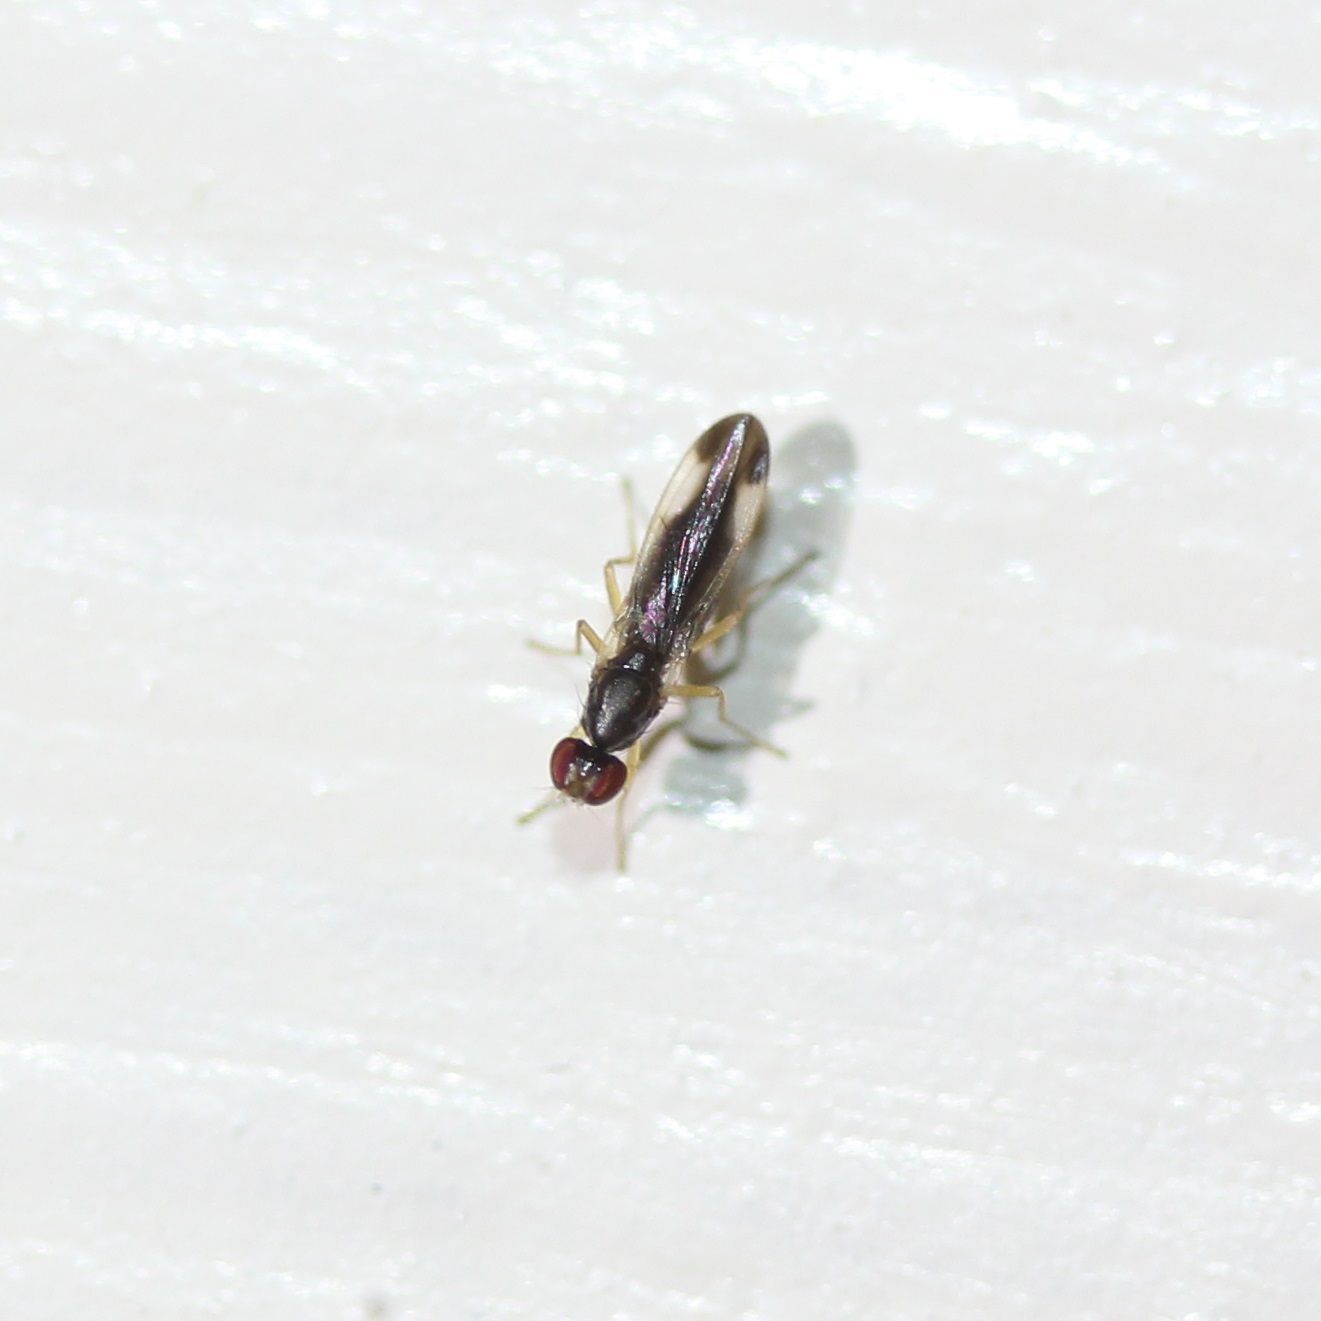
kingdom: Animalia
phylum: Arthropoda
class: Insecta
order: Diptera
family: Anthomyzidae
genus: Ischnomyia
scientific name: Ischnomyia albicosta
